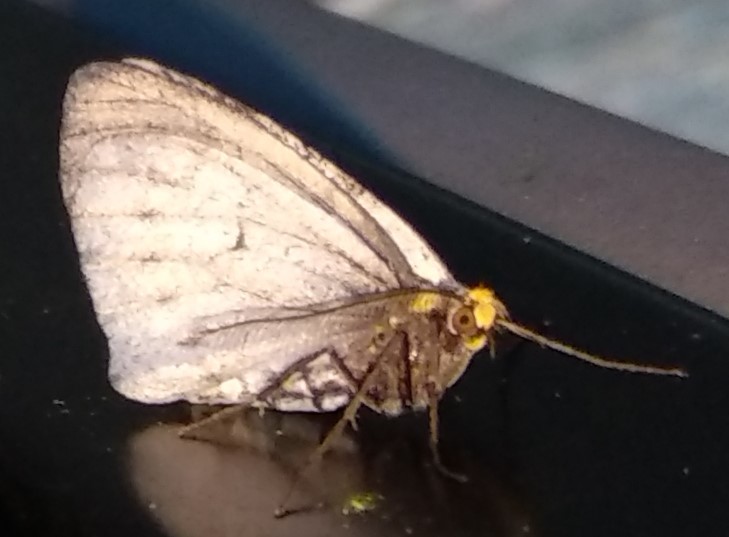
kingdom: Animalia
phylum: Arthropoda
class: Insecta
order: Lepidoptera
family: Geometridae
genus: Cingilia
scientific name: Cingilia catenaria
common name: Chain-dotted geometer
